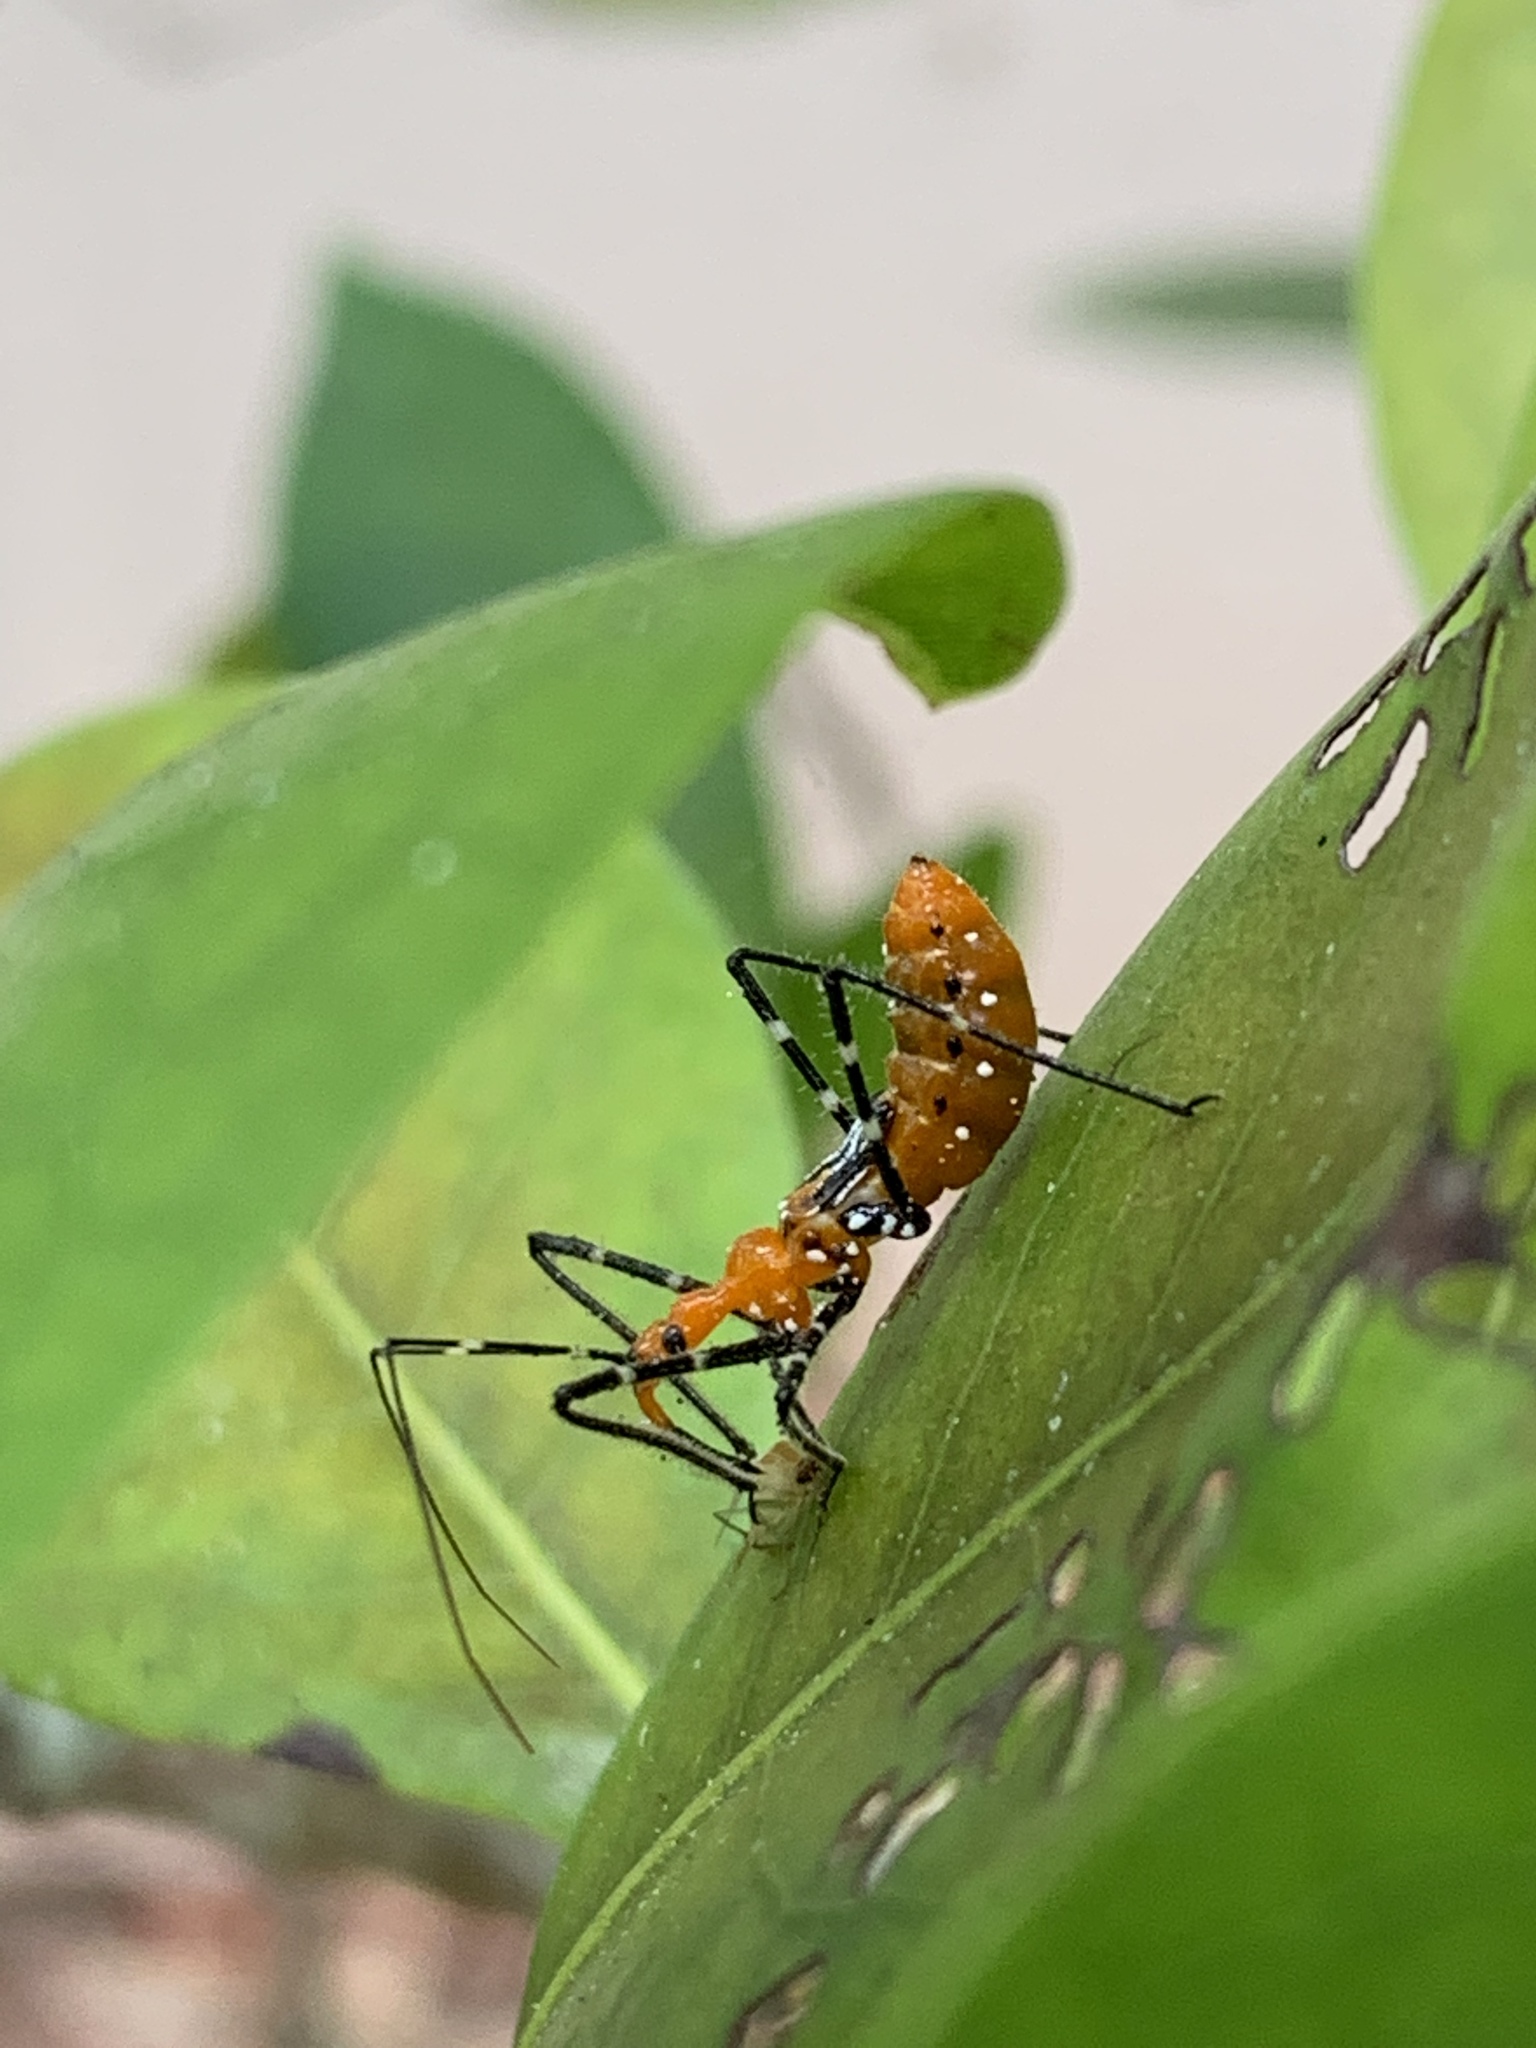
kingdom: Animalia
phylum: Arthropoda
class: Insecta
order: Hemiptera
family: Reduviidae
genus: Zelus
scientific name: Zelus longipes
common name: Milkweed assassin bug
